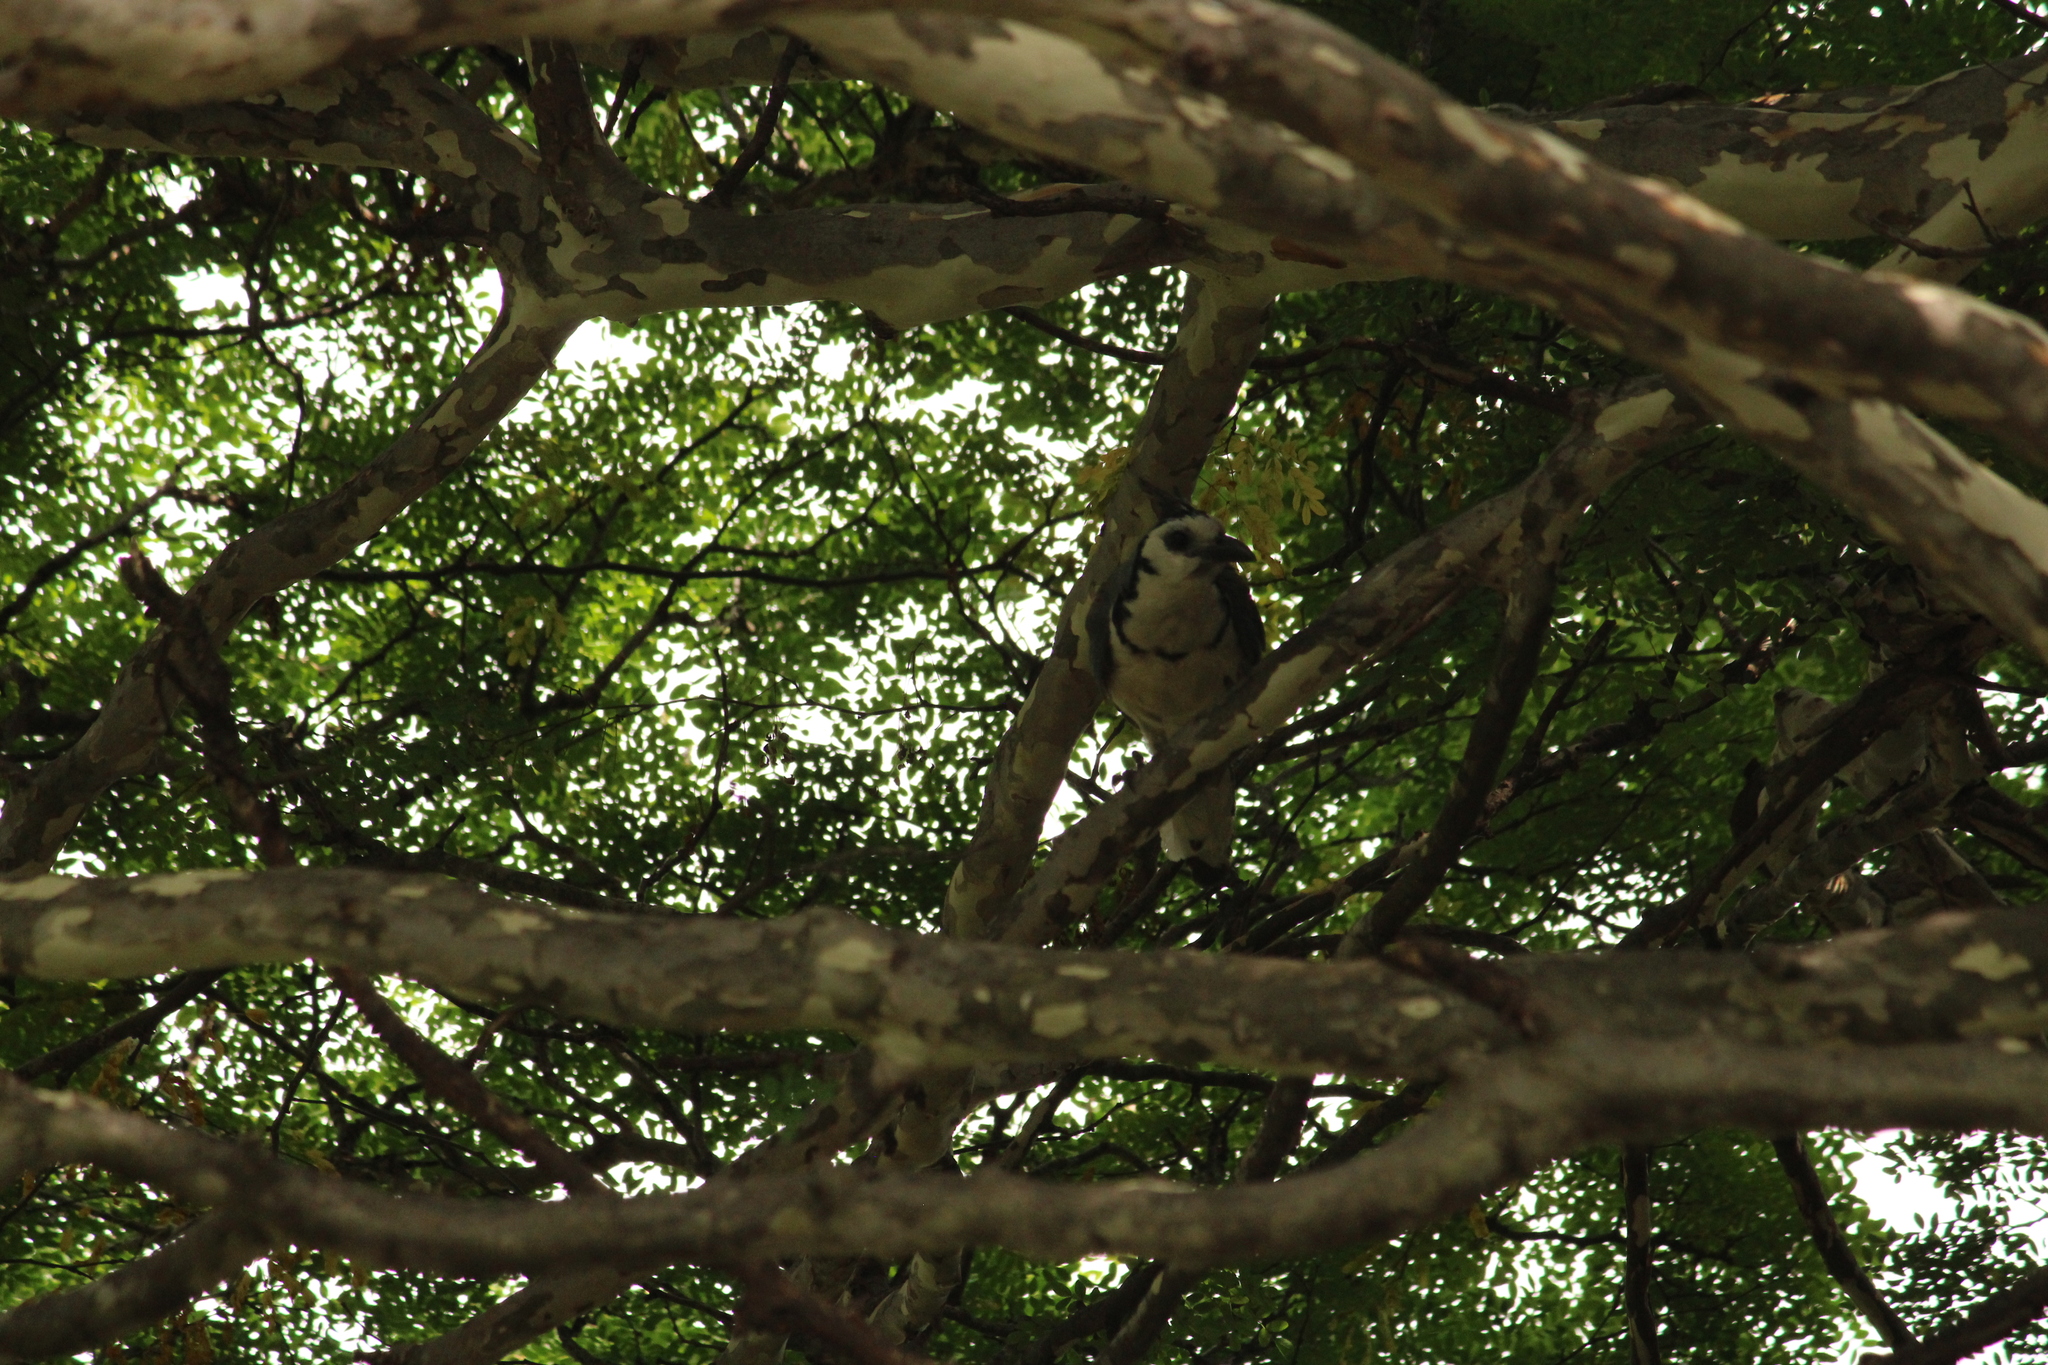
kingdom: Animalia
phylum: Chordata
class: Aves
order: Passeriformes
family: Corvidae
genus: Calocitta
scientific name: Calocitta formosa
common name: White-throated magpie-jay
